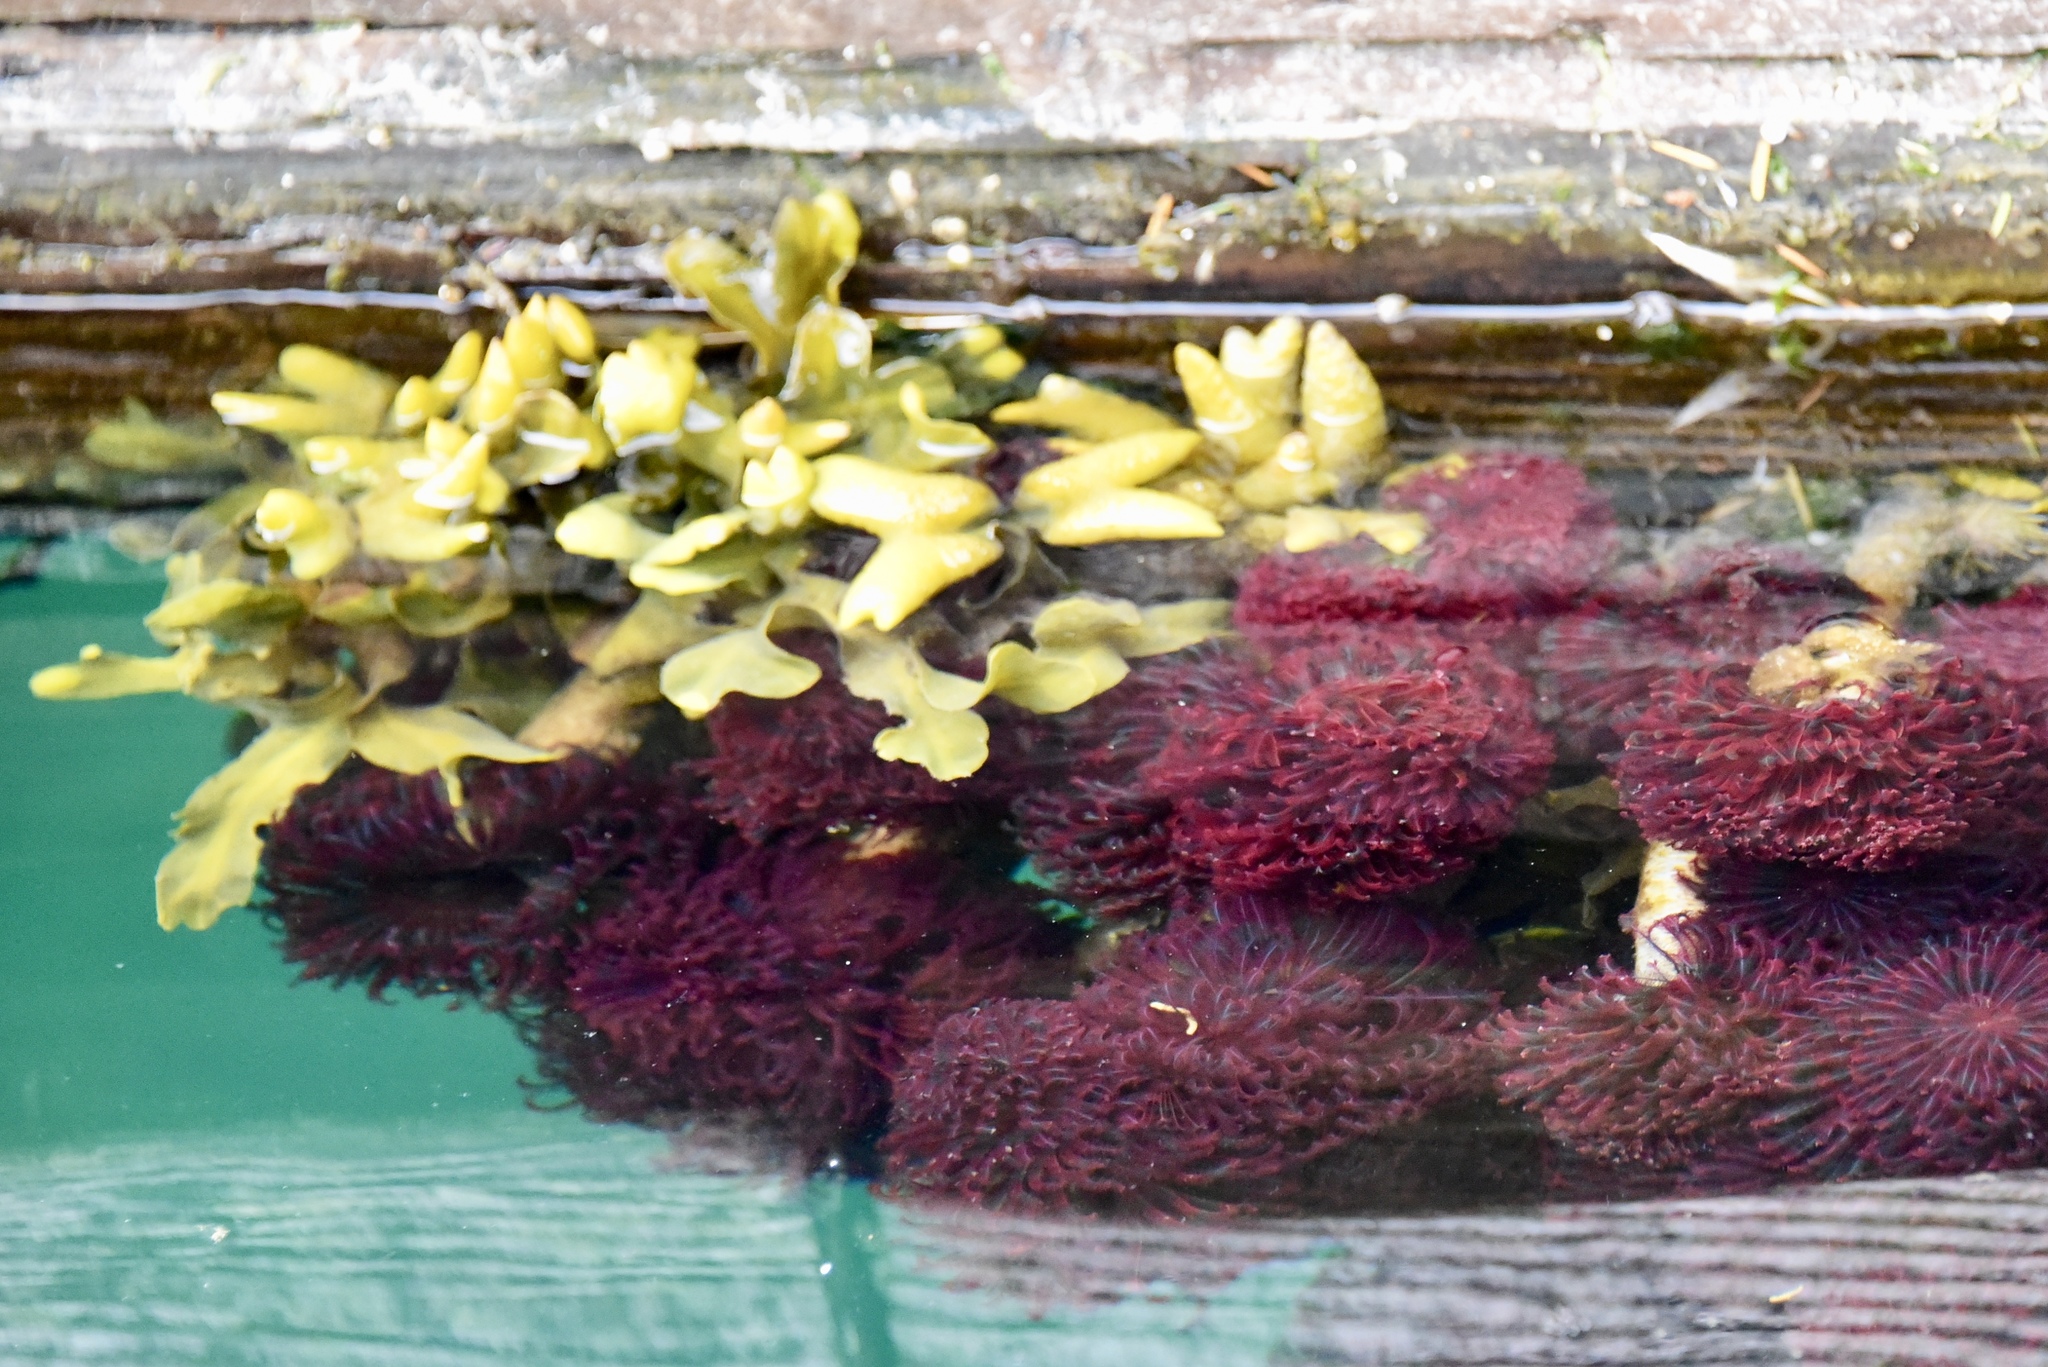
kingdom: Animalia
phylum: Annelida
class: Polychaeta
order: Sabellida
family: Sabellidae
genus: Eudistylia
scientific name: Eudistylia vancouveri
